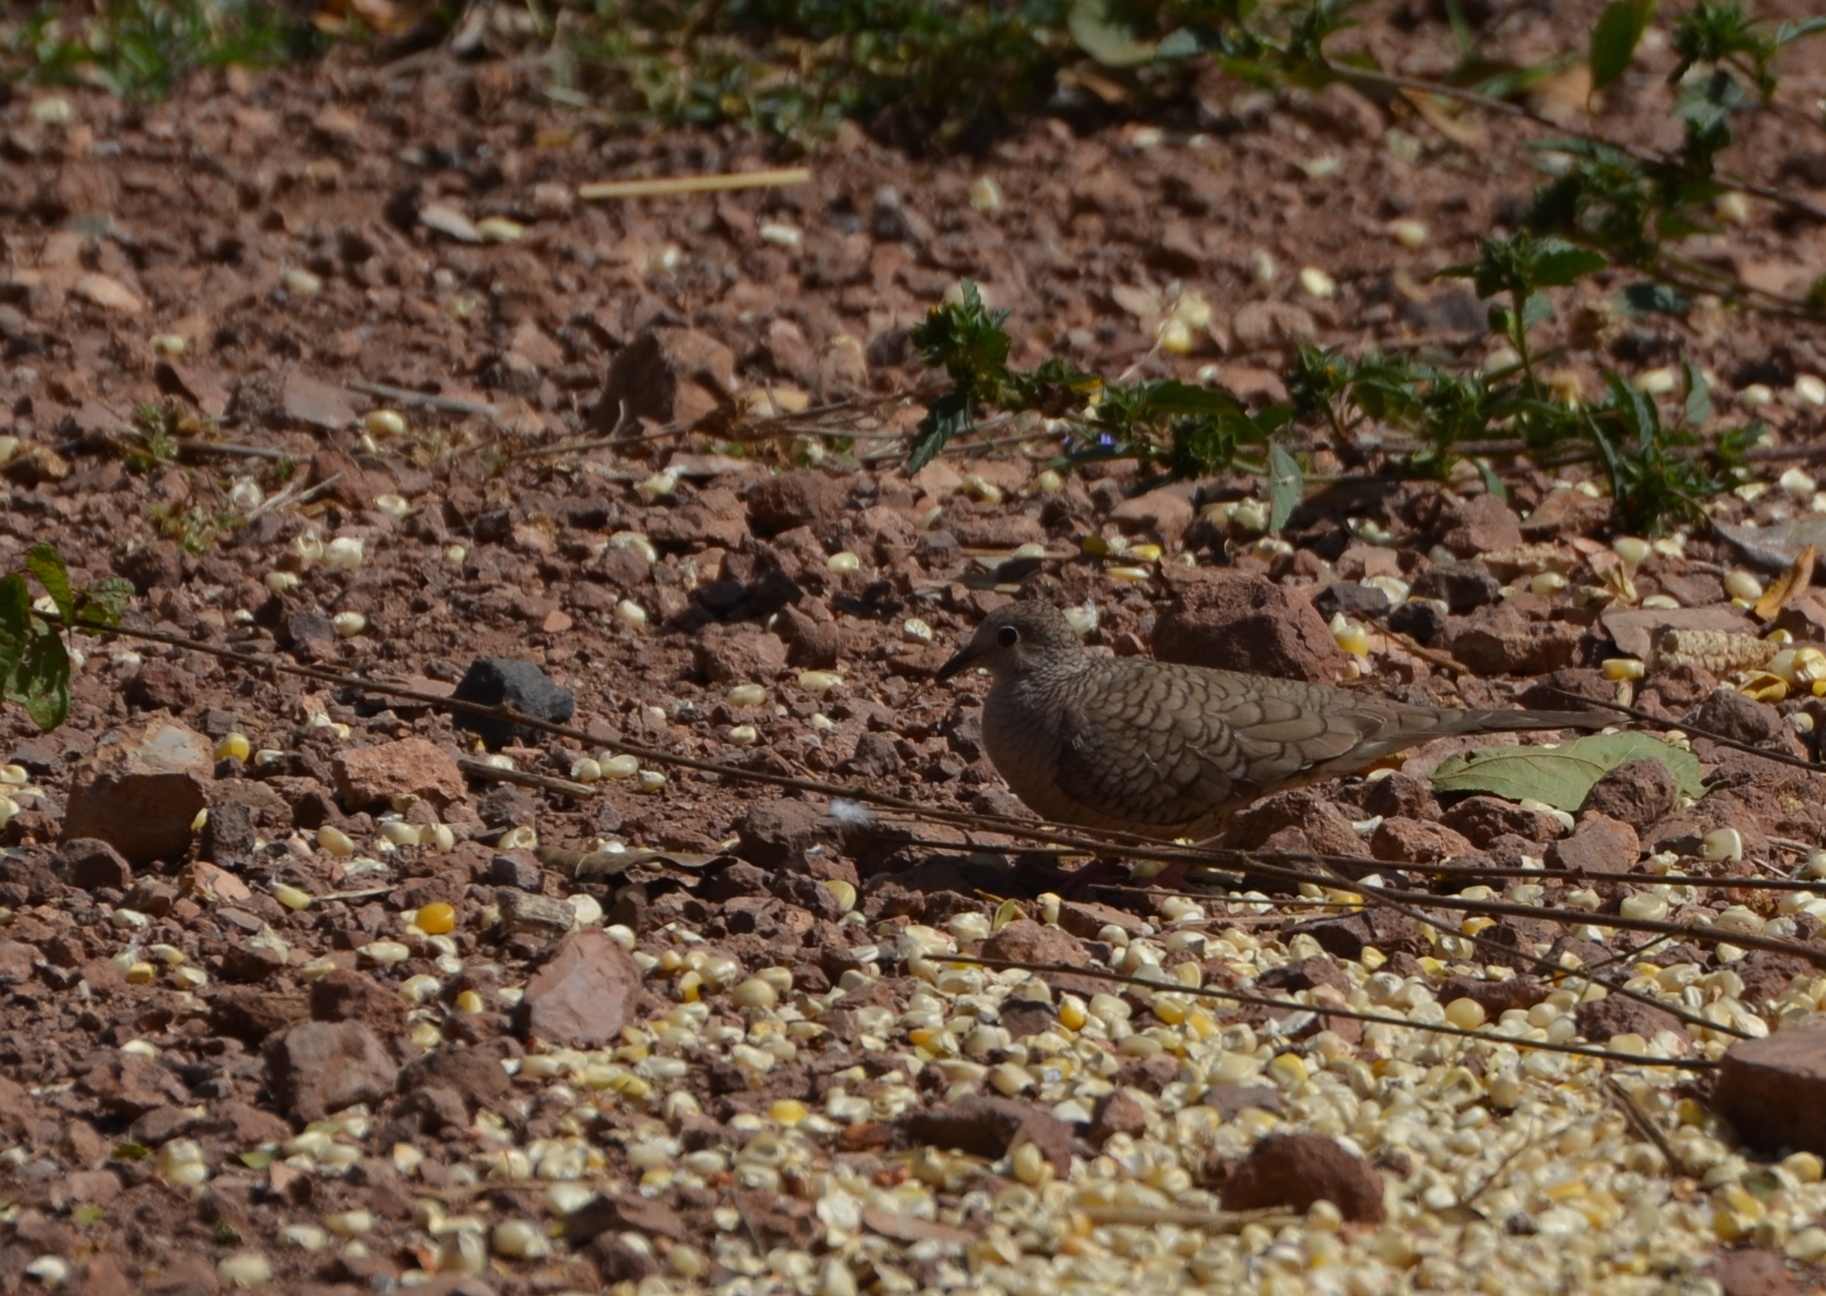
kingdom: Animalia
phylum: Chordata
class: Aves
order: Columbiformes
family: Columbidae
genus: Columbina
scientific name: Columbina inca
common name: Inca dove
